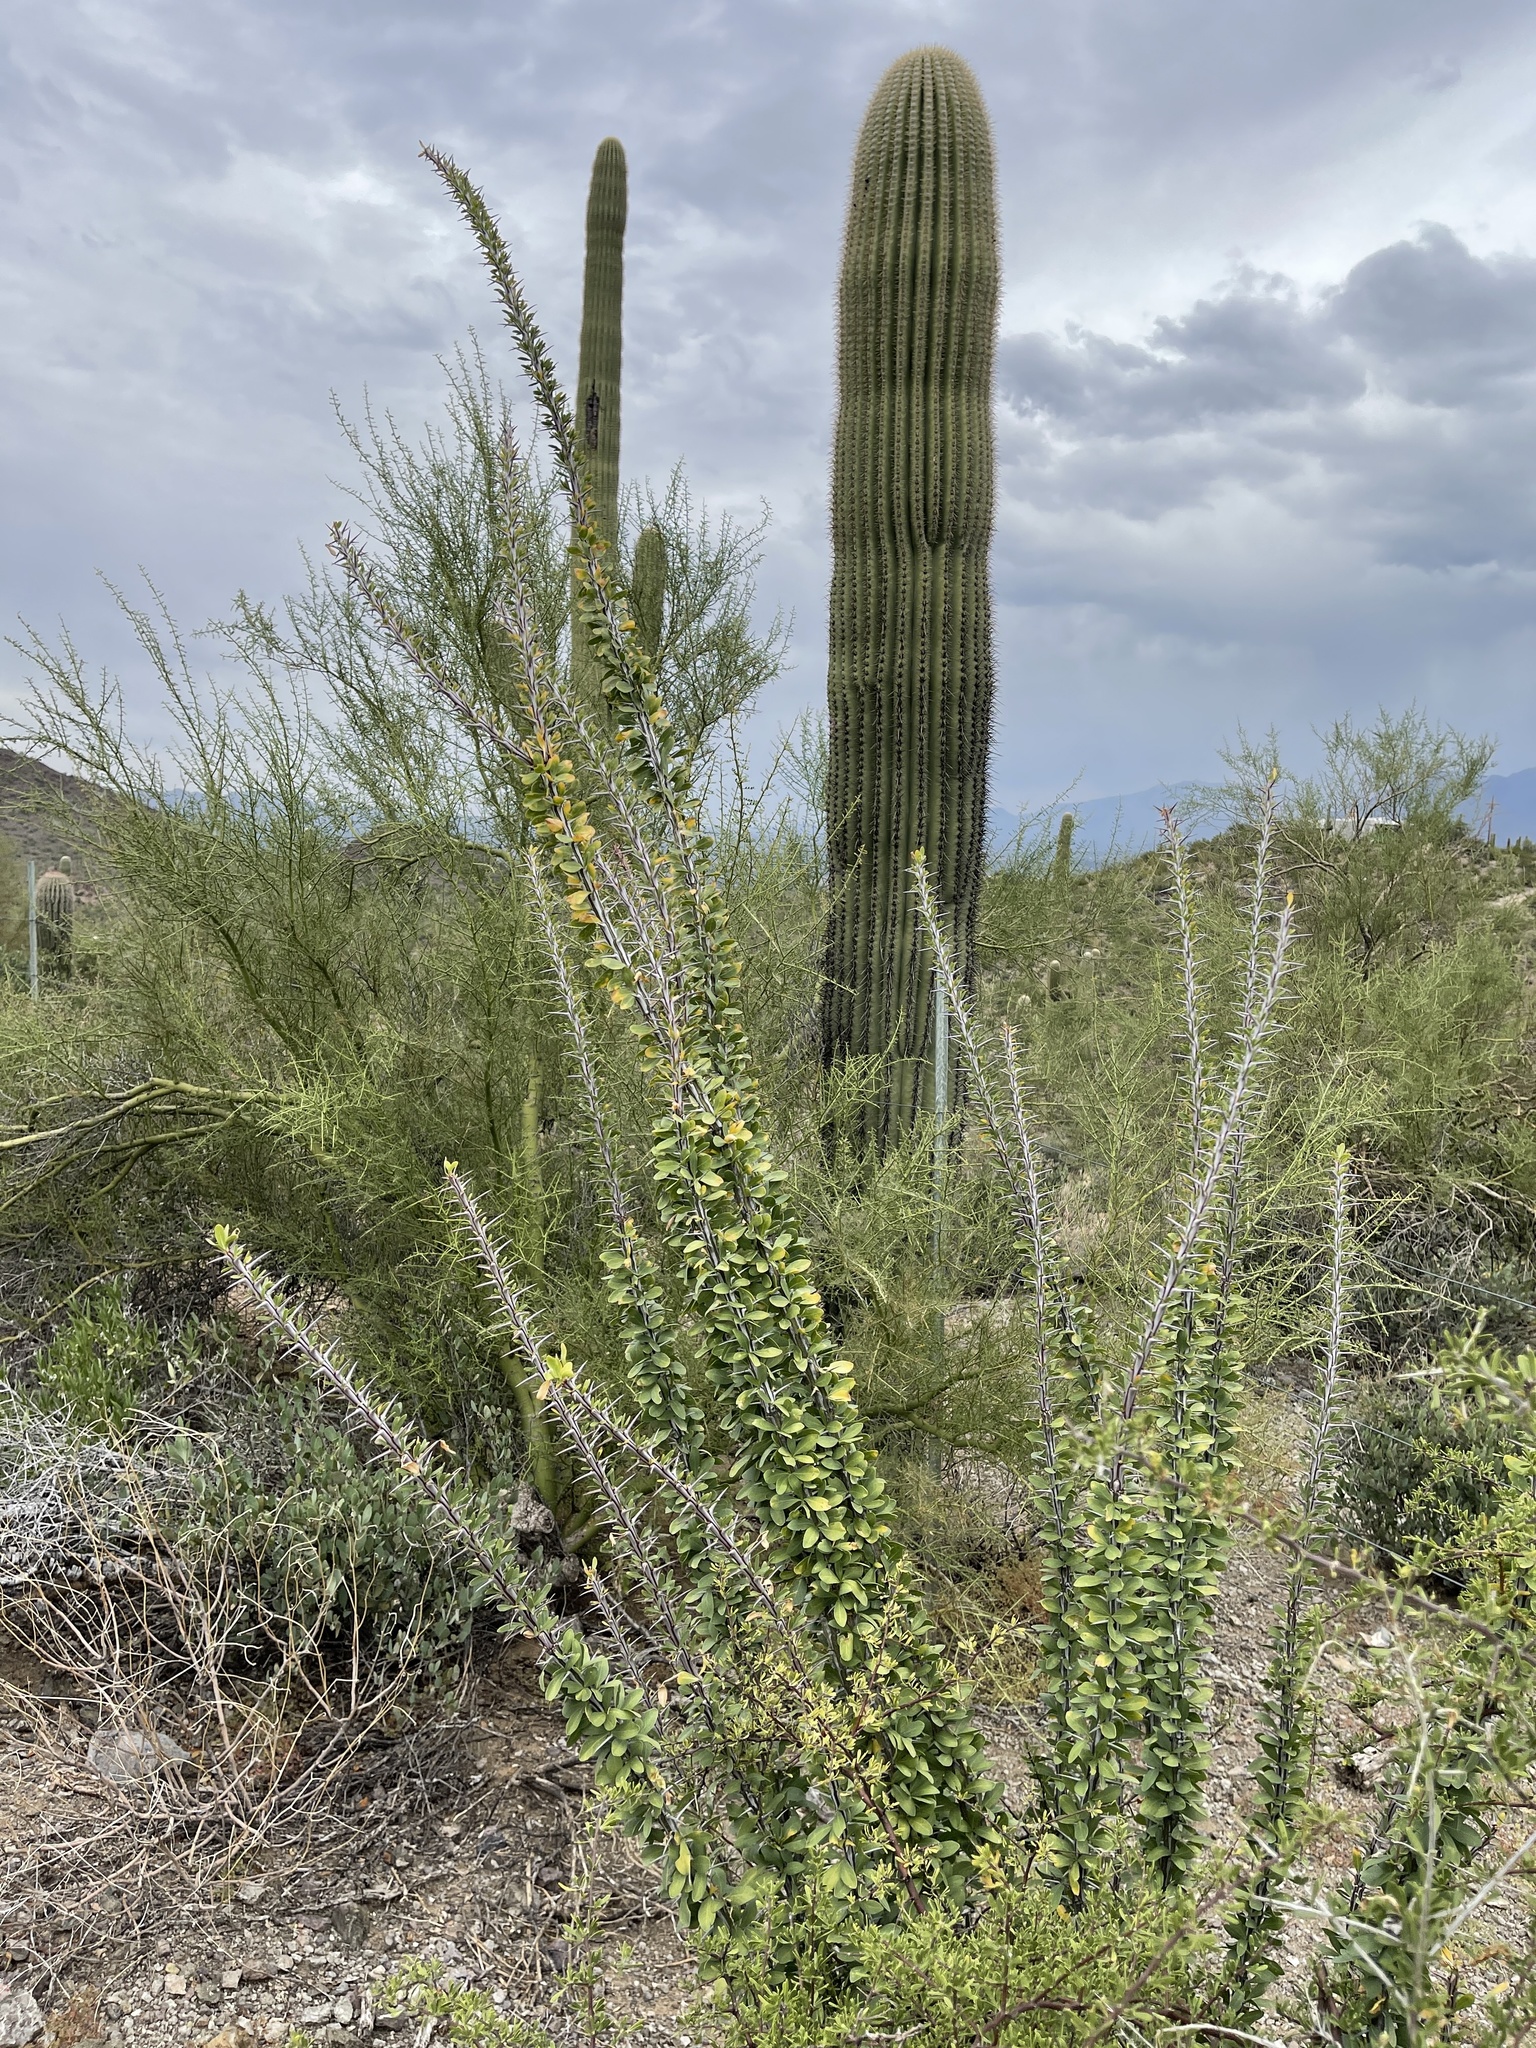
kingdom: Plantae
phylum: Tracheophyta
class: Magnoliopsida
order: Ericales
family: Fouquieriaceae
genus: Fouquieria
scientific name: Fouquieria splendens
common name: Vine-cactus
